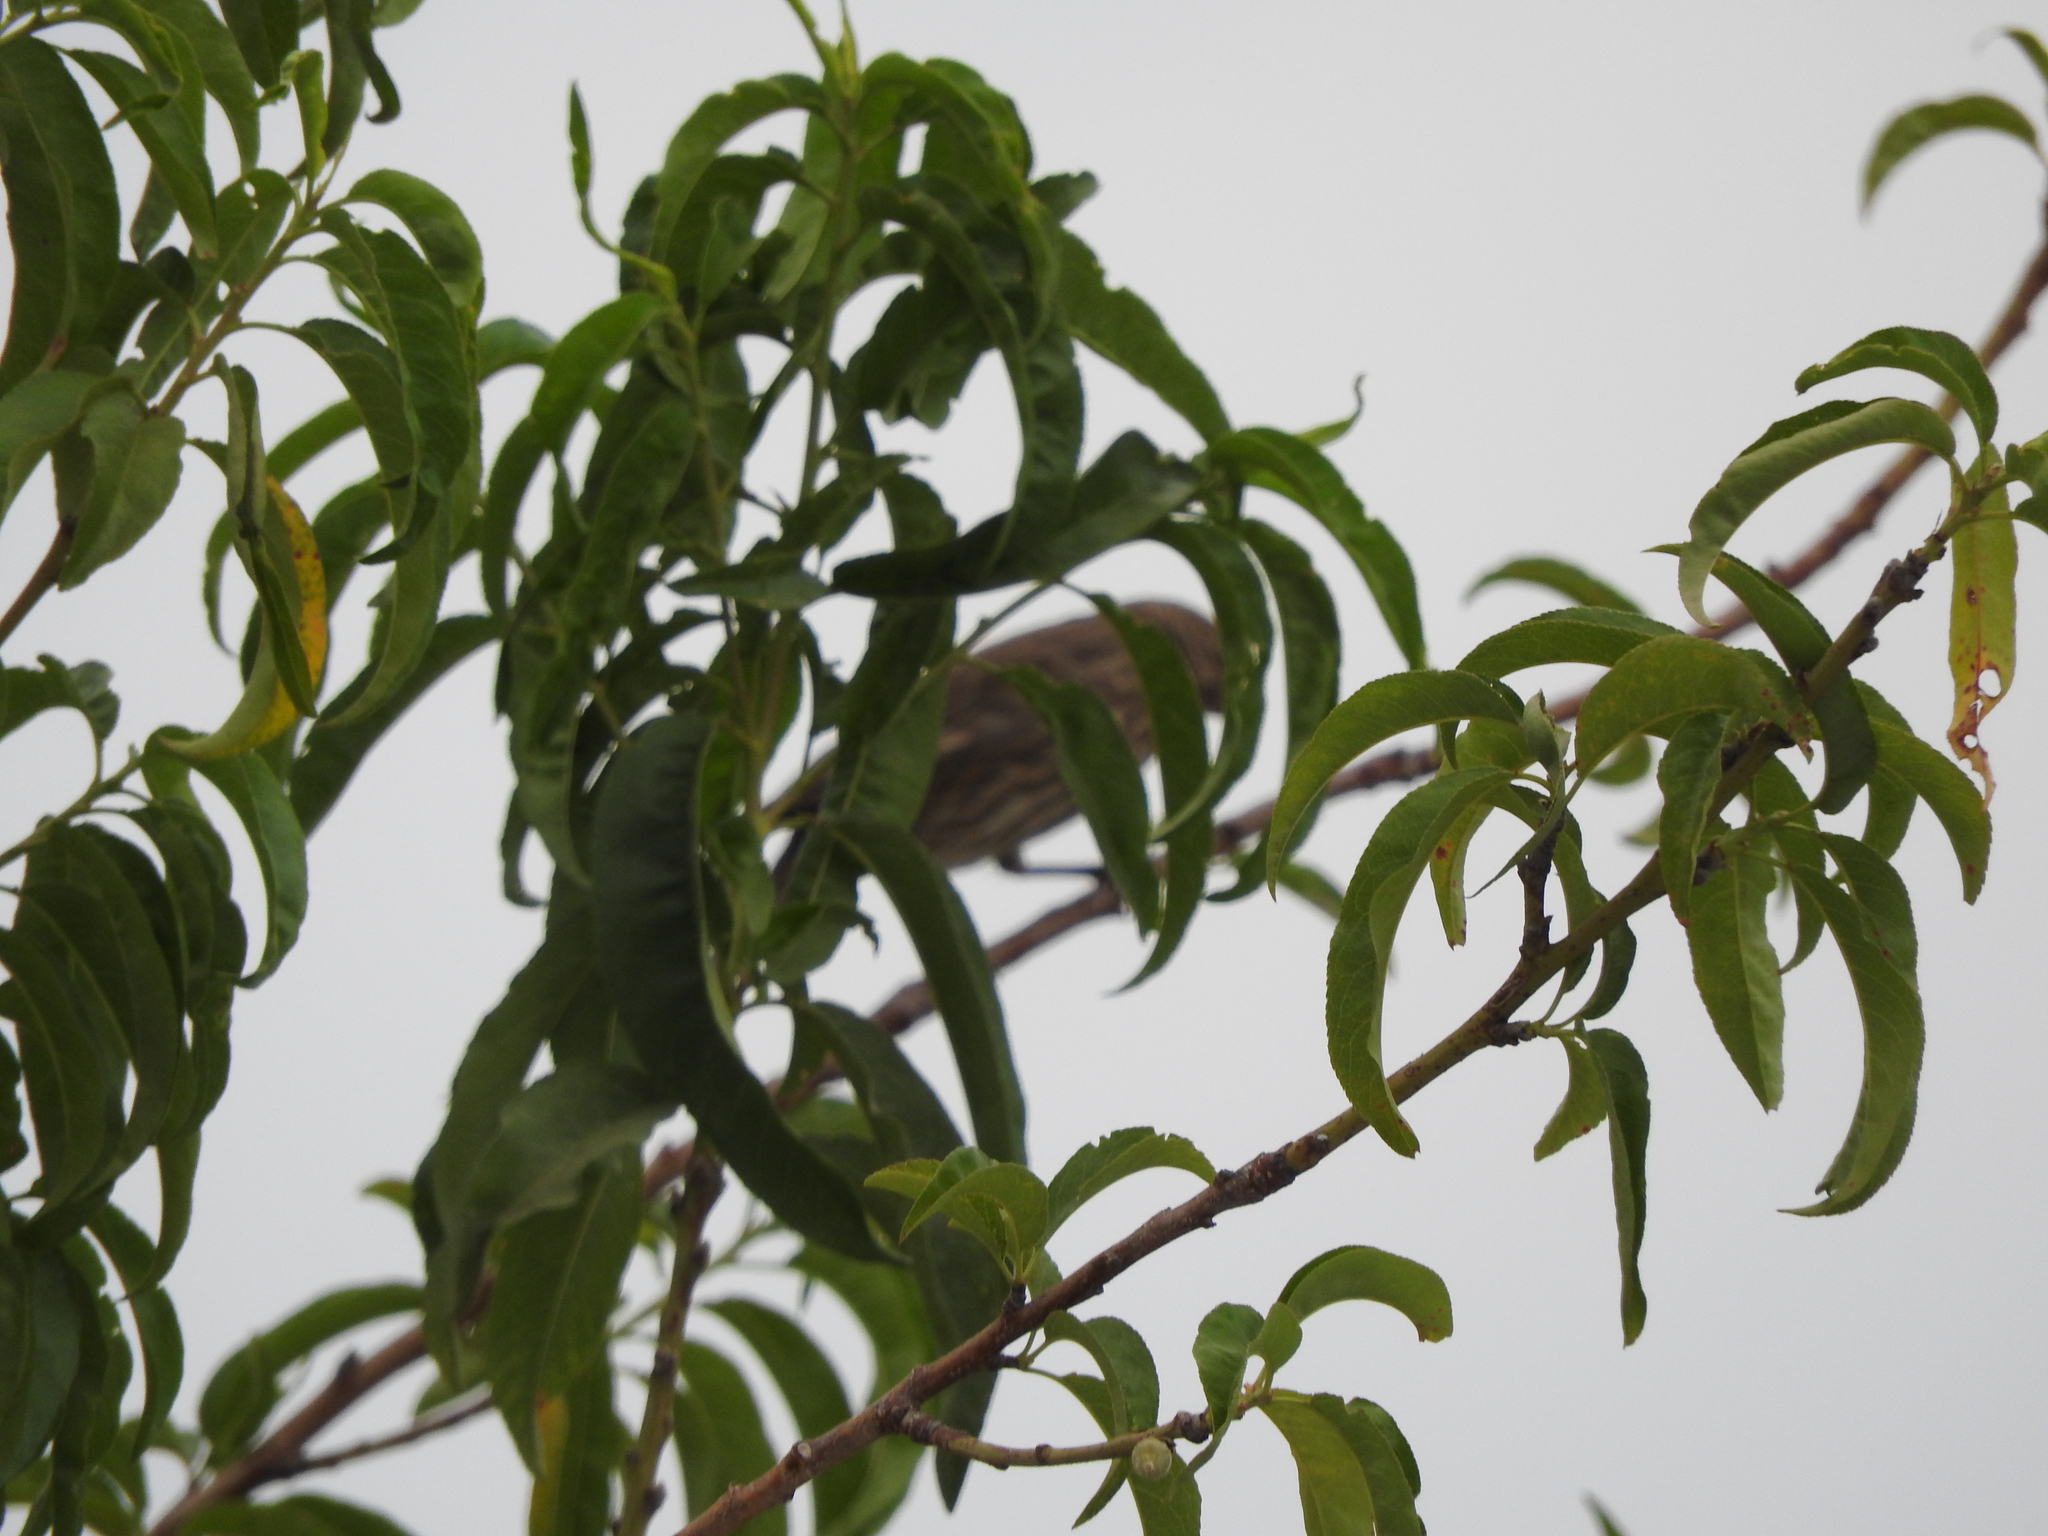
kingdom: Animalia
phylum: Chordata
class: Aves
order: Passeriformes
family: Fringillidae
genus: Haemorhous
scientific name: Haemorhous mexicanus
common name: House finch
